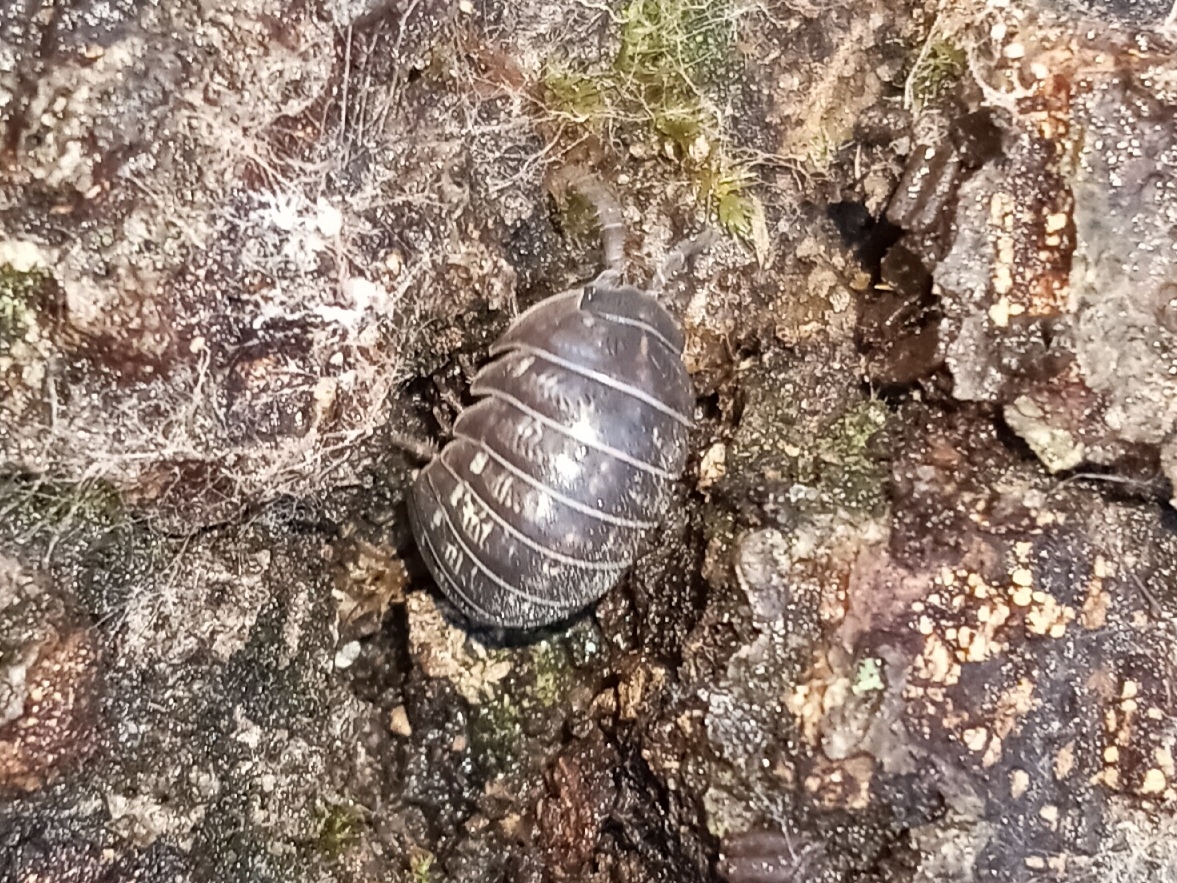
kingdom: Animalia
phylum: Arthropoda
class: Malacostraca
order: Isopoda
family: Armadillidiidae
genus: Armadillidium
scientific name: Armadillidium vulgare
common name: Common pill woodlouse
